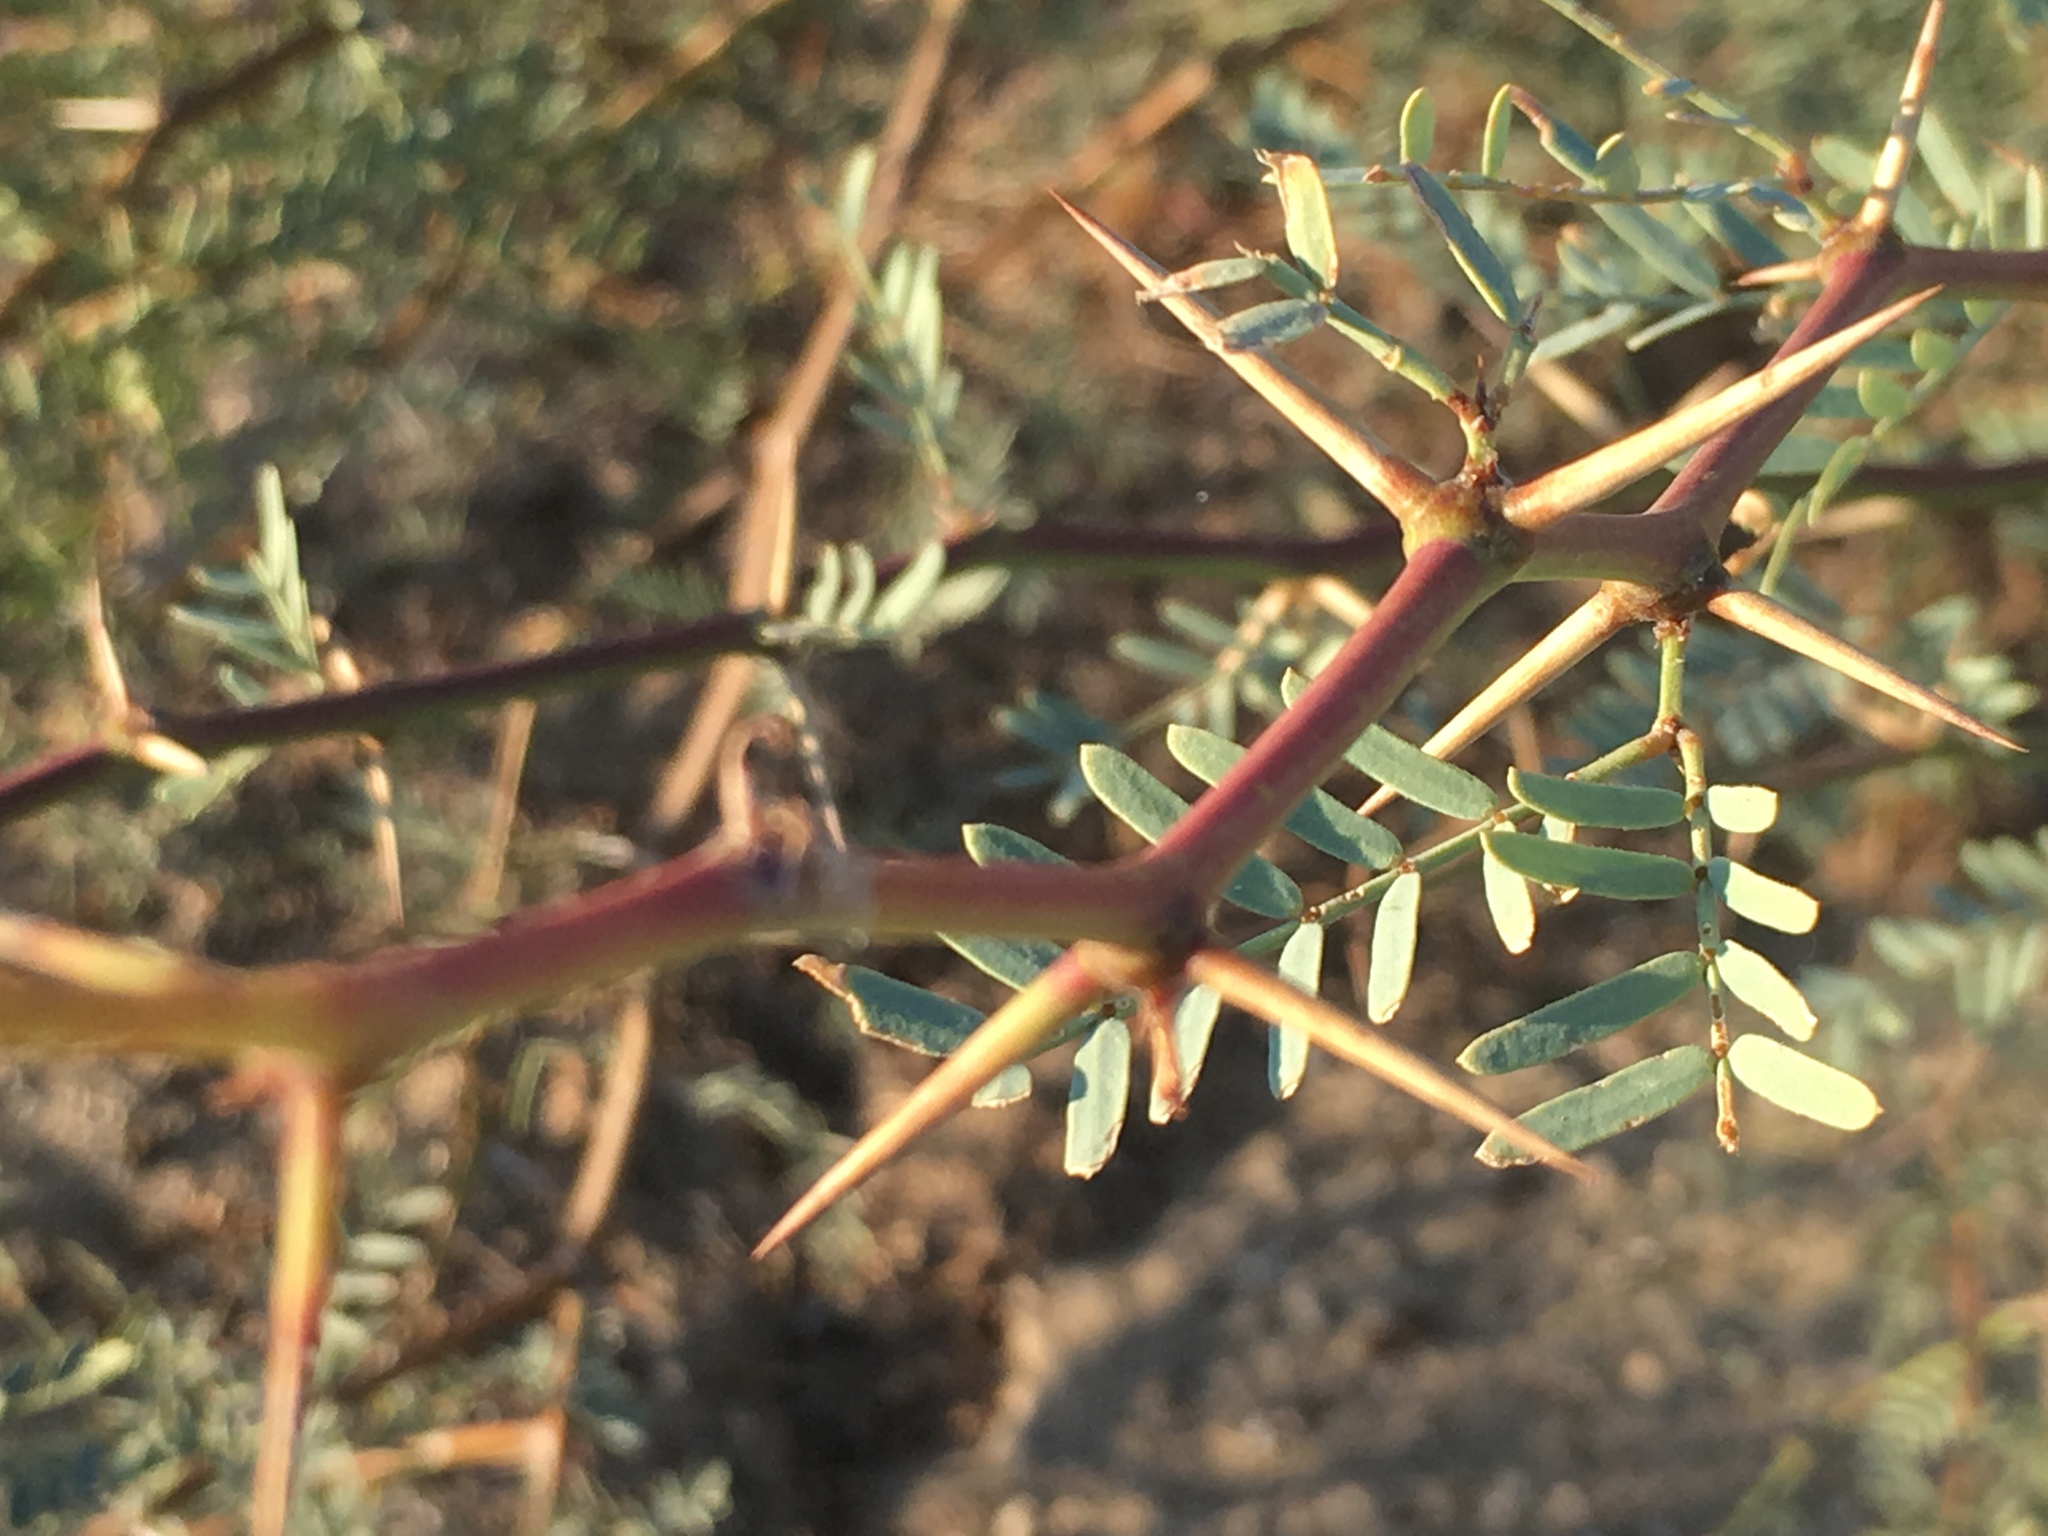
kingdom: Plantae
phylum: Tracheophyta
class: Magnoliopsida
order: Fabales
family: Fabaceae
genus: Prosopis
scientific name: Prosopis pubescens
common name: Screw-bean
